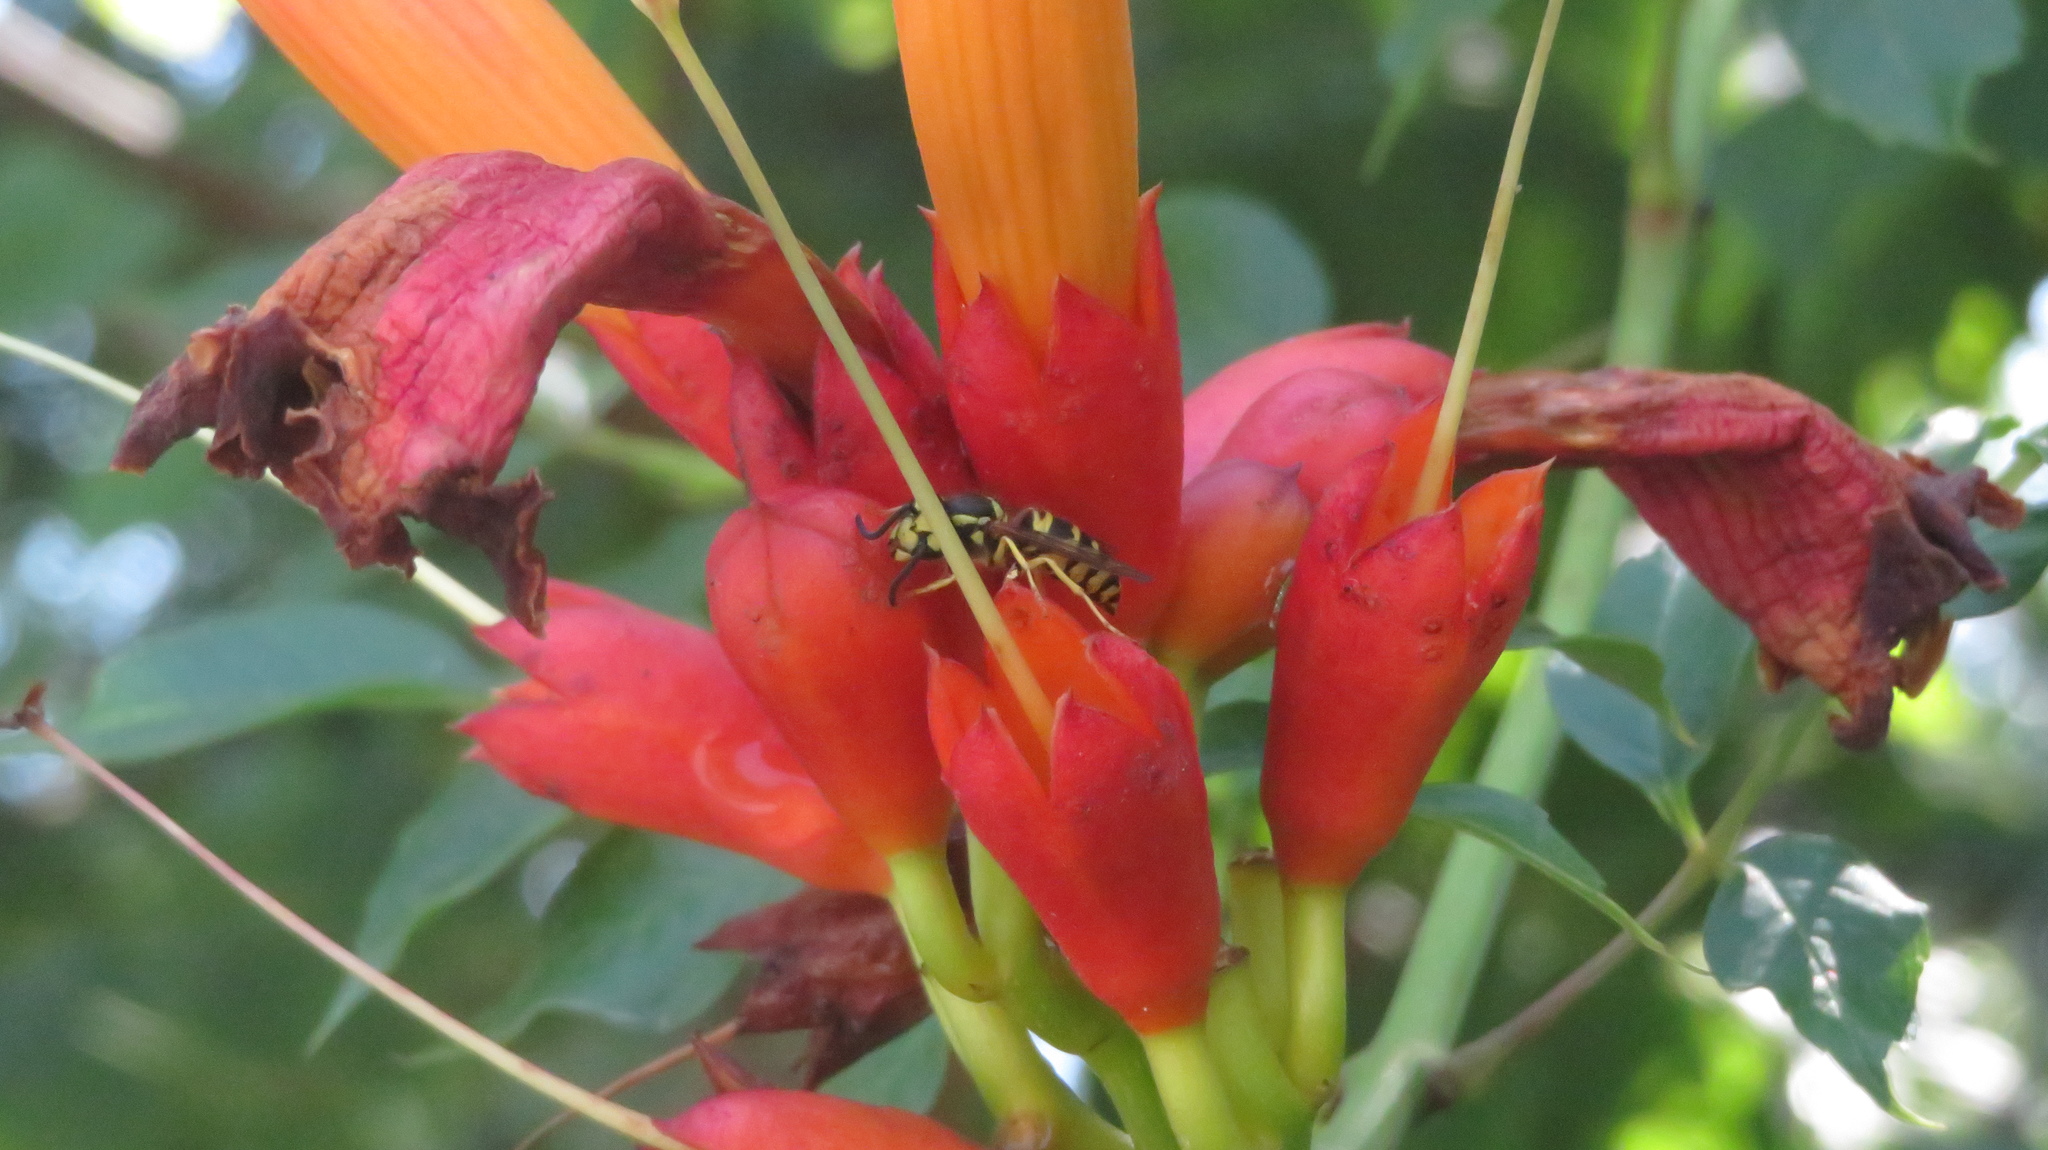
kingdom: Plantae
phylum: Tracheophyta
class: Magnoliopsida
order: Lamiales
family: Bignoniaceae
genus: Campsis
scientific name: Campsis radicans
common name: Trumpet-creeper
